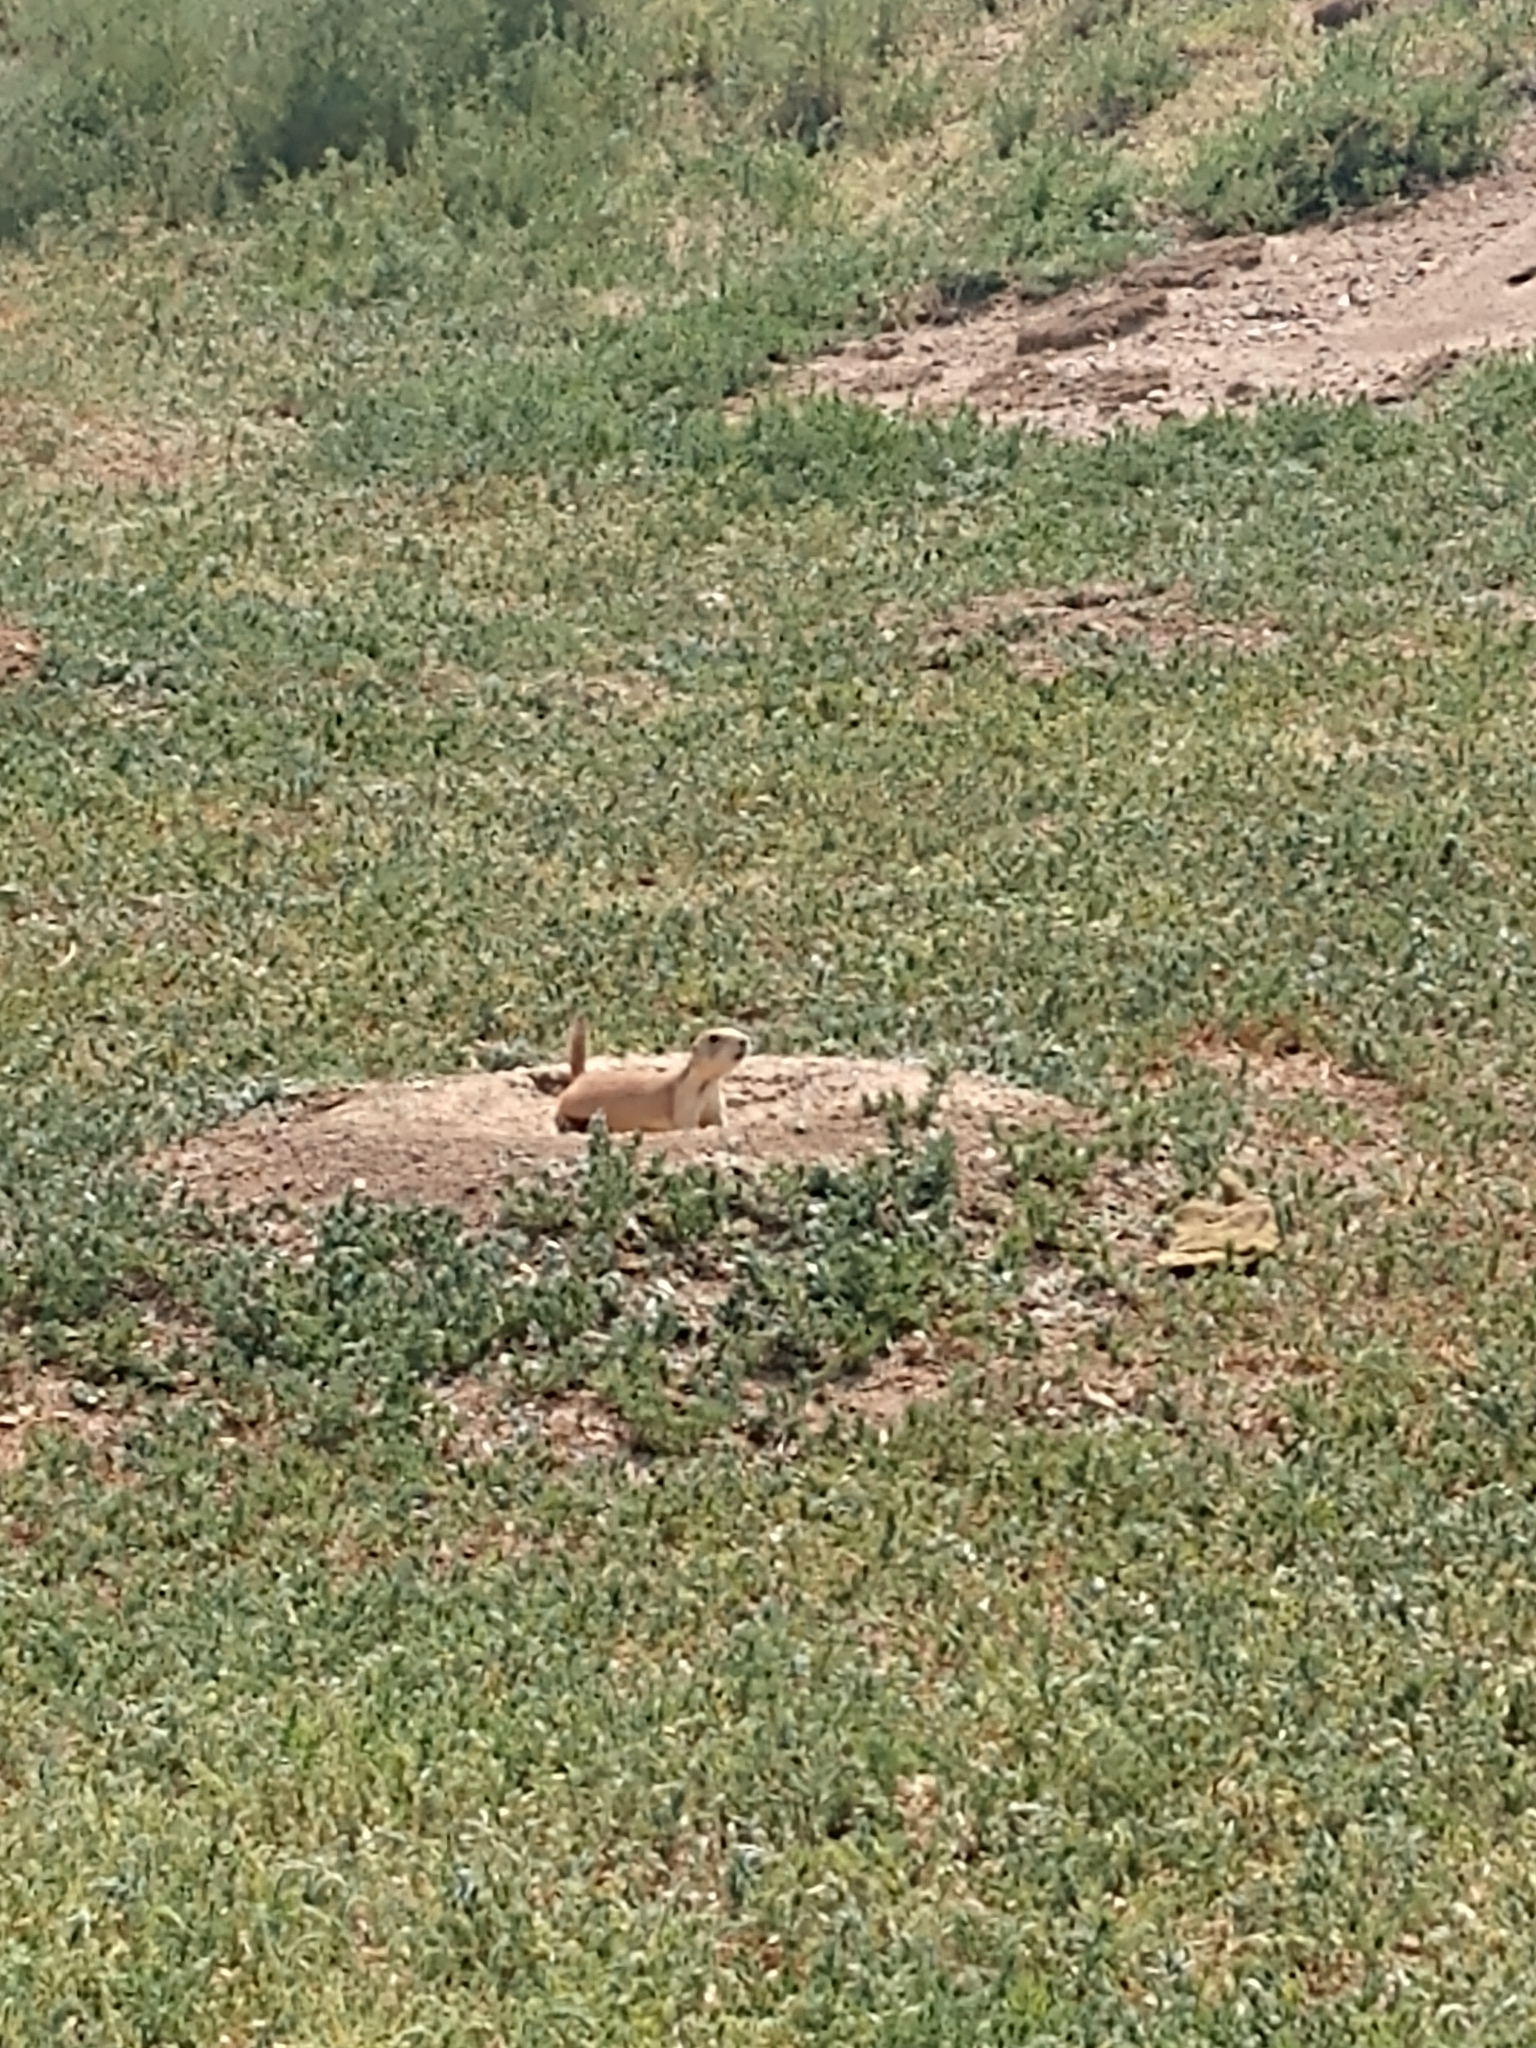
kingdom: Animalia
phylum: Chordata
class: Mammalia
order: Rodentia
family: Sciuridae
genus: Cynomys
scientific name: Cynomys ludovicianus
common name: Black-tailed prairie dog
